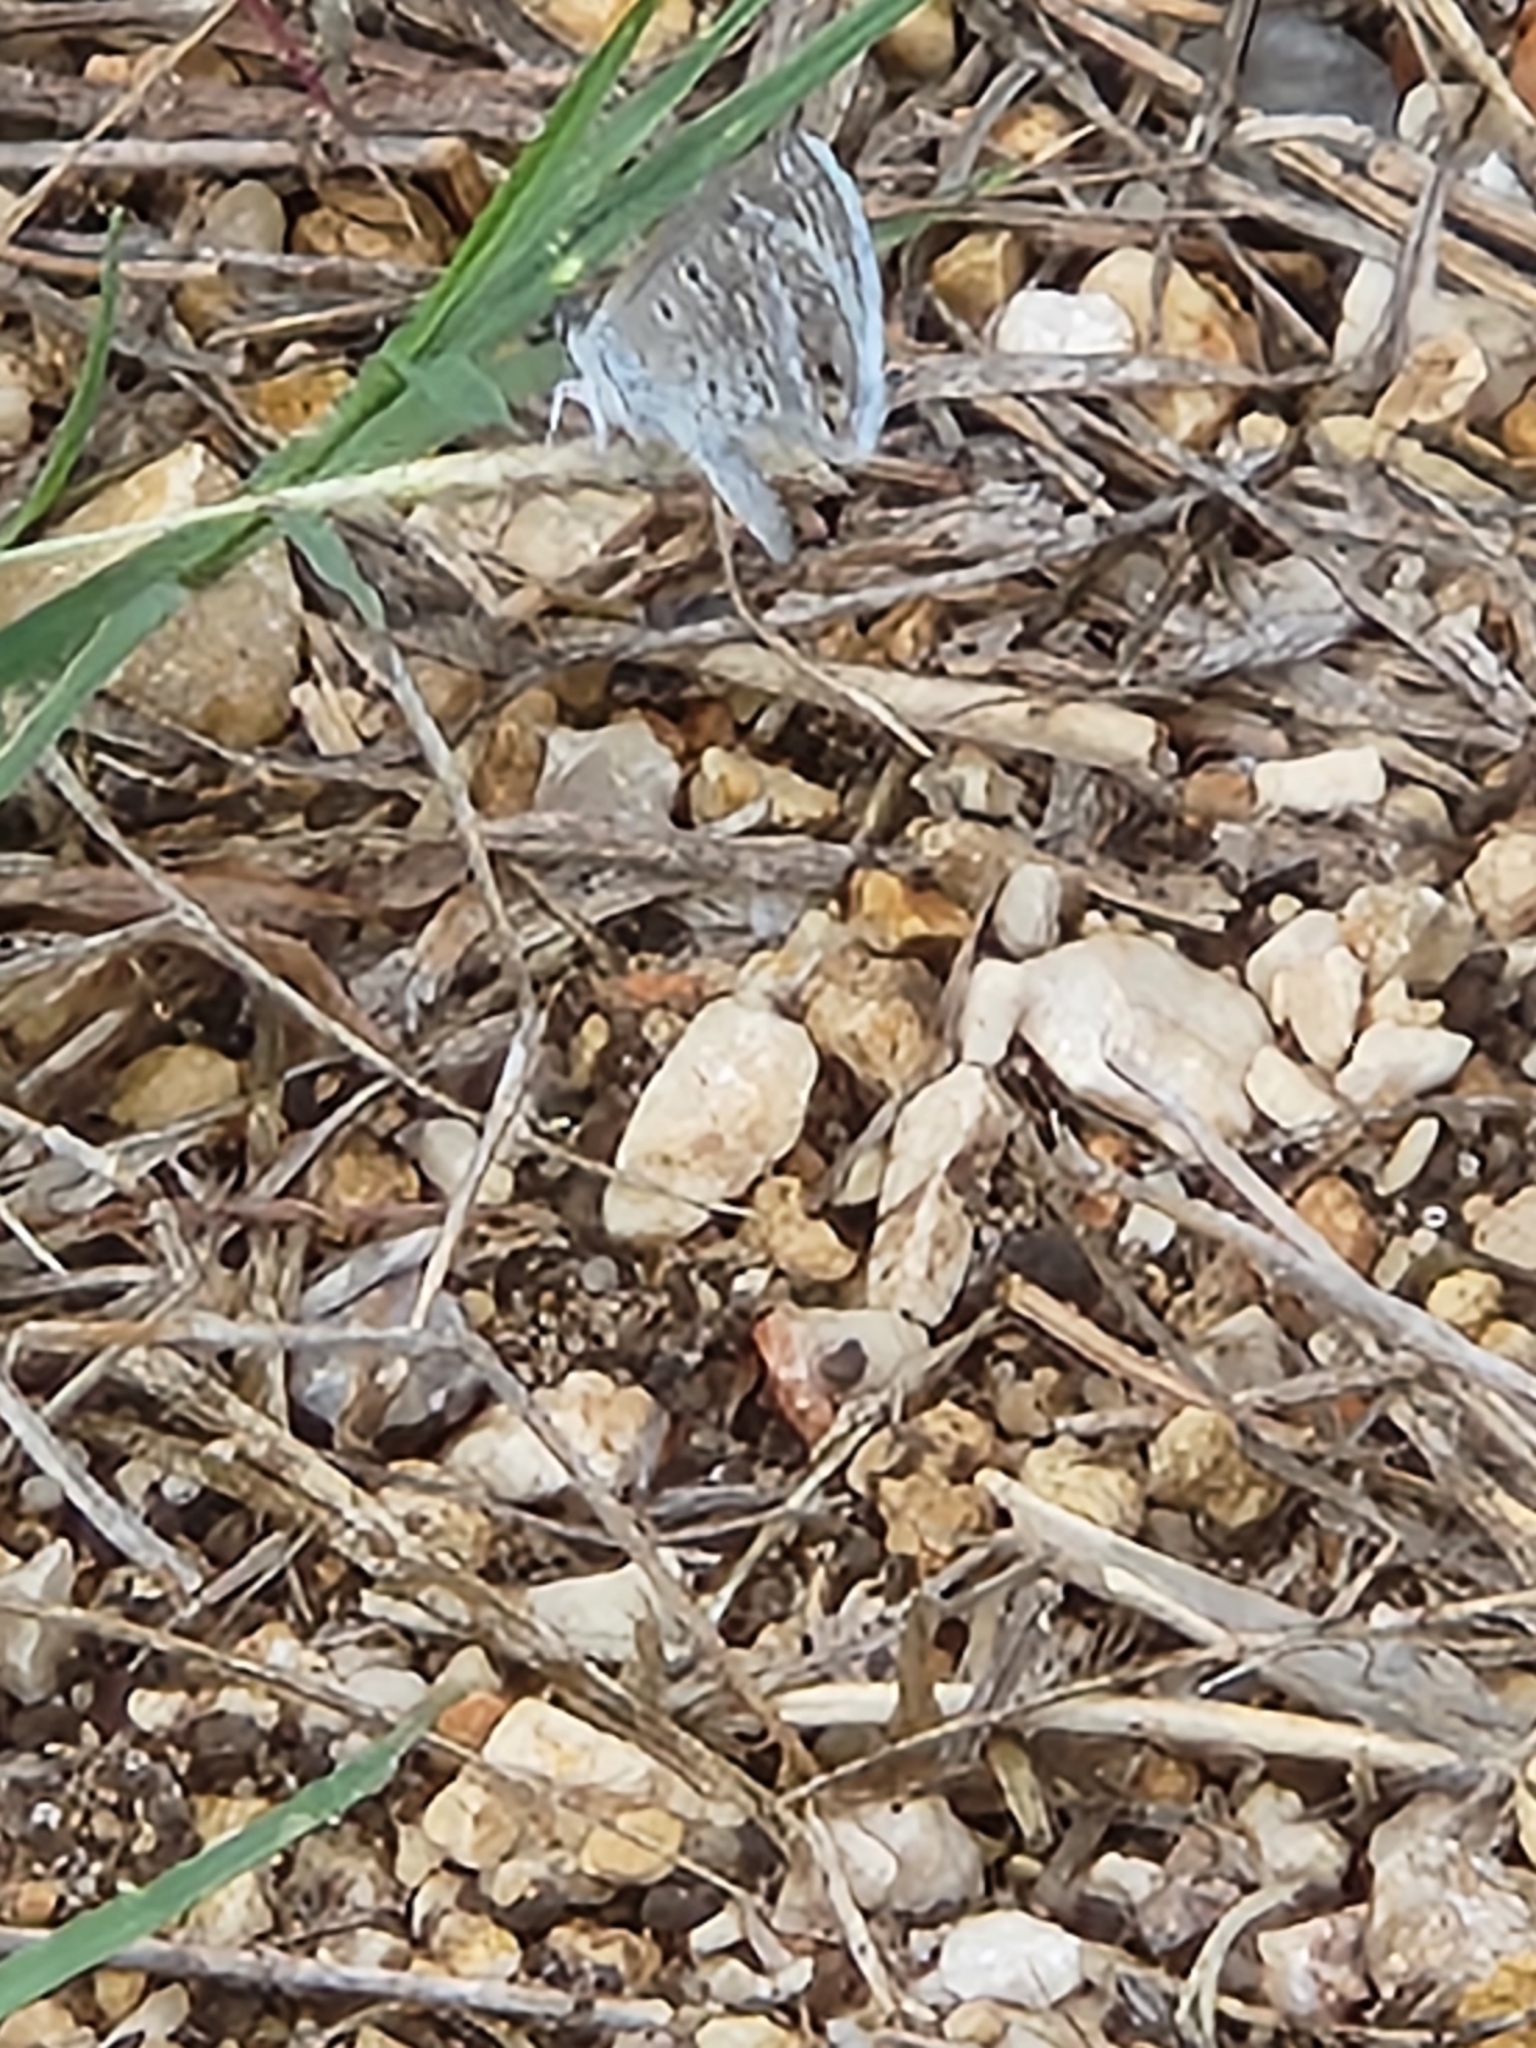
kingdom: Animalia
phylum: Arthropoda
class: Insecta
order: Lepidoptera
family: Lycaenidae
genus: Echinargus
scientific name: Echinargus isola
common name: Reakirt's blue
